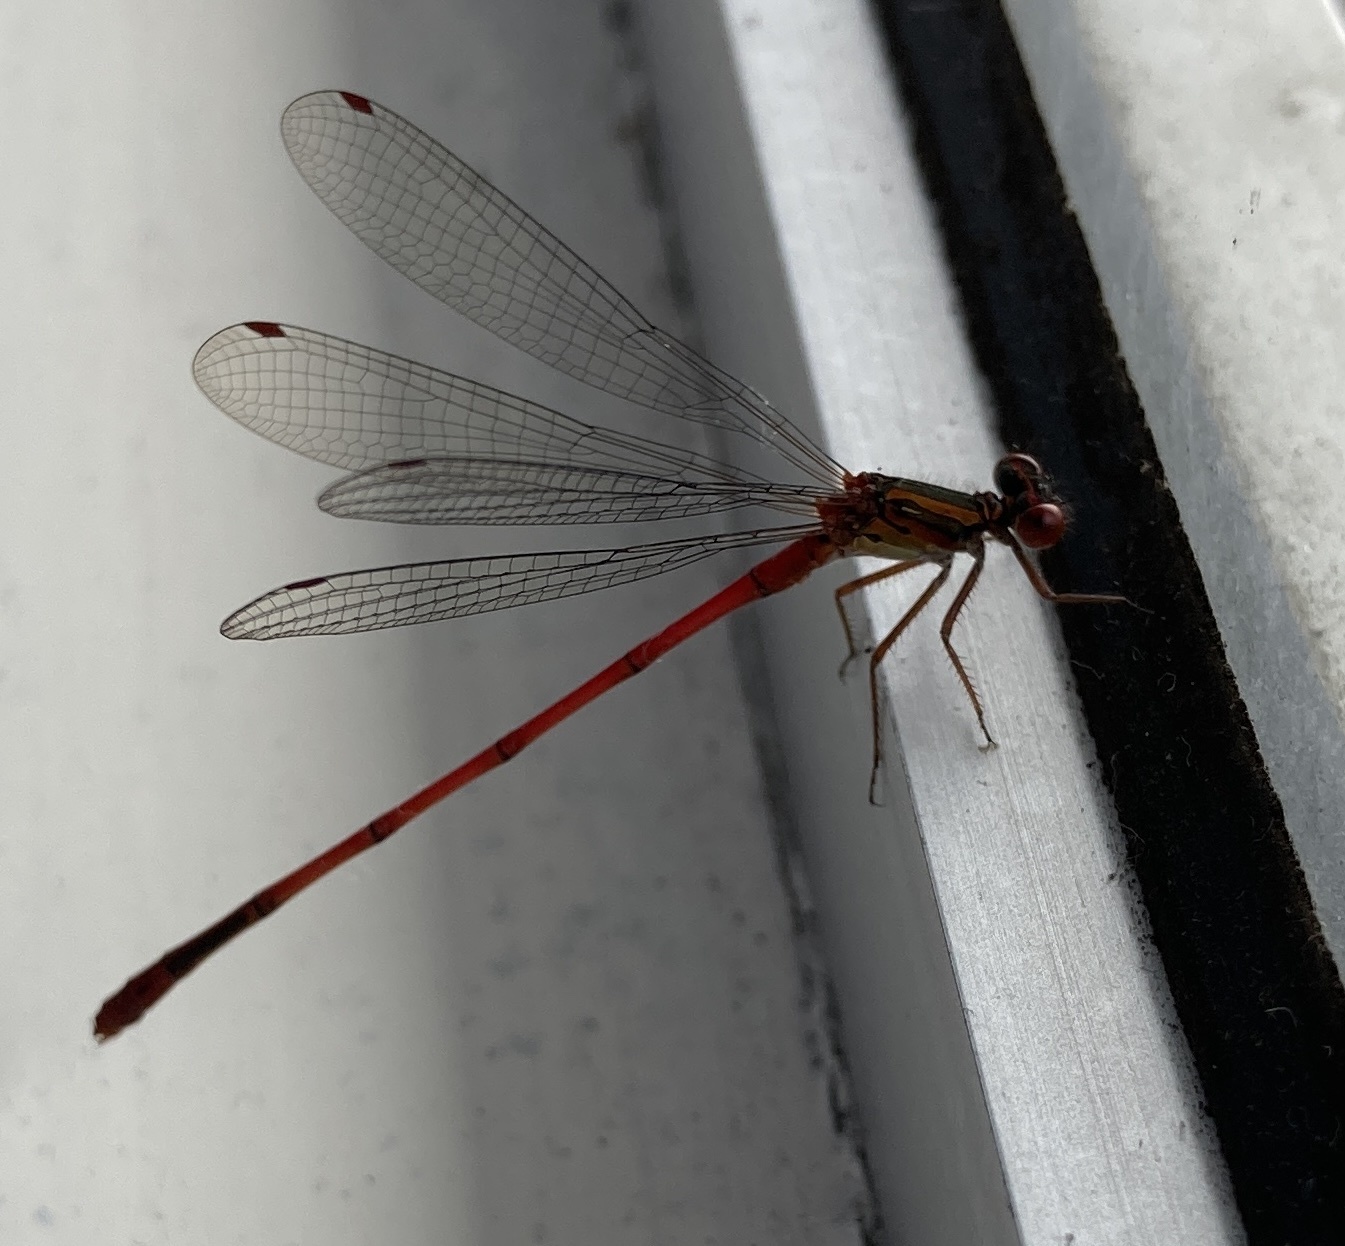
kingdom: Animalia
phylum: Arthropoda
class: Insecta
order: Odonata
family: Coenagrionidae
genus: Xanthocnemis
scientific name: Xanthocnemis zealandica
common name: Common redcoat damselfly
